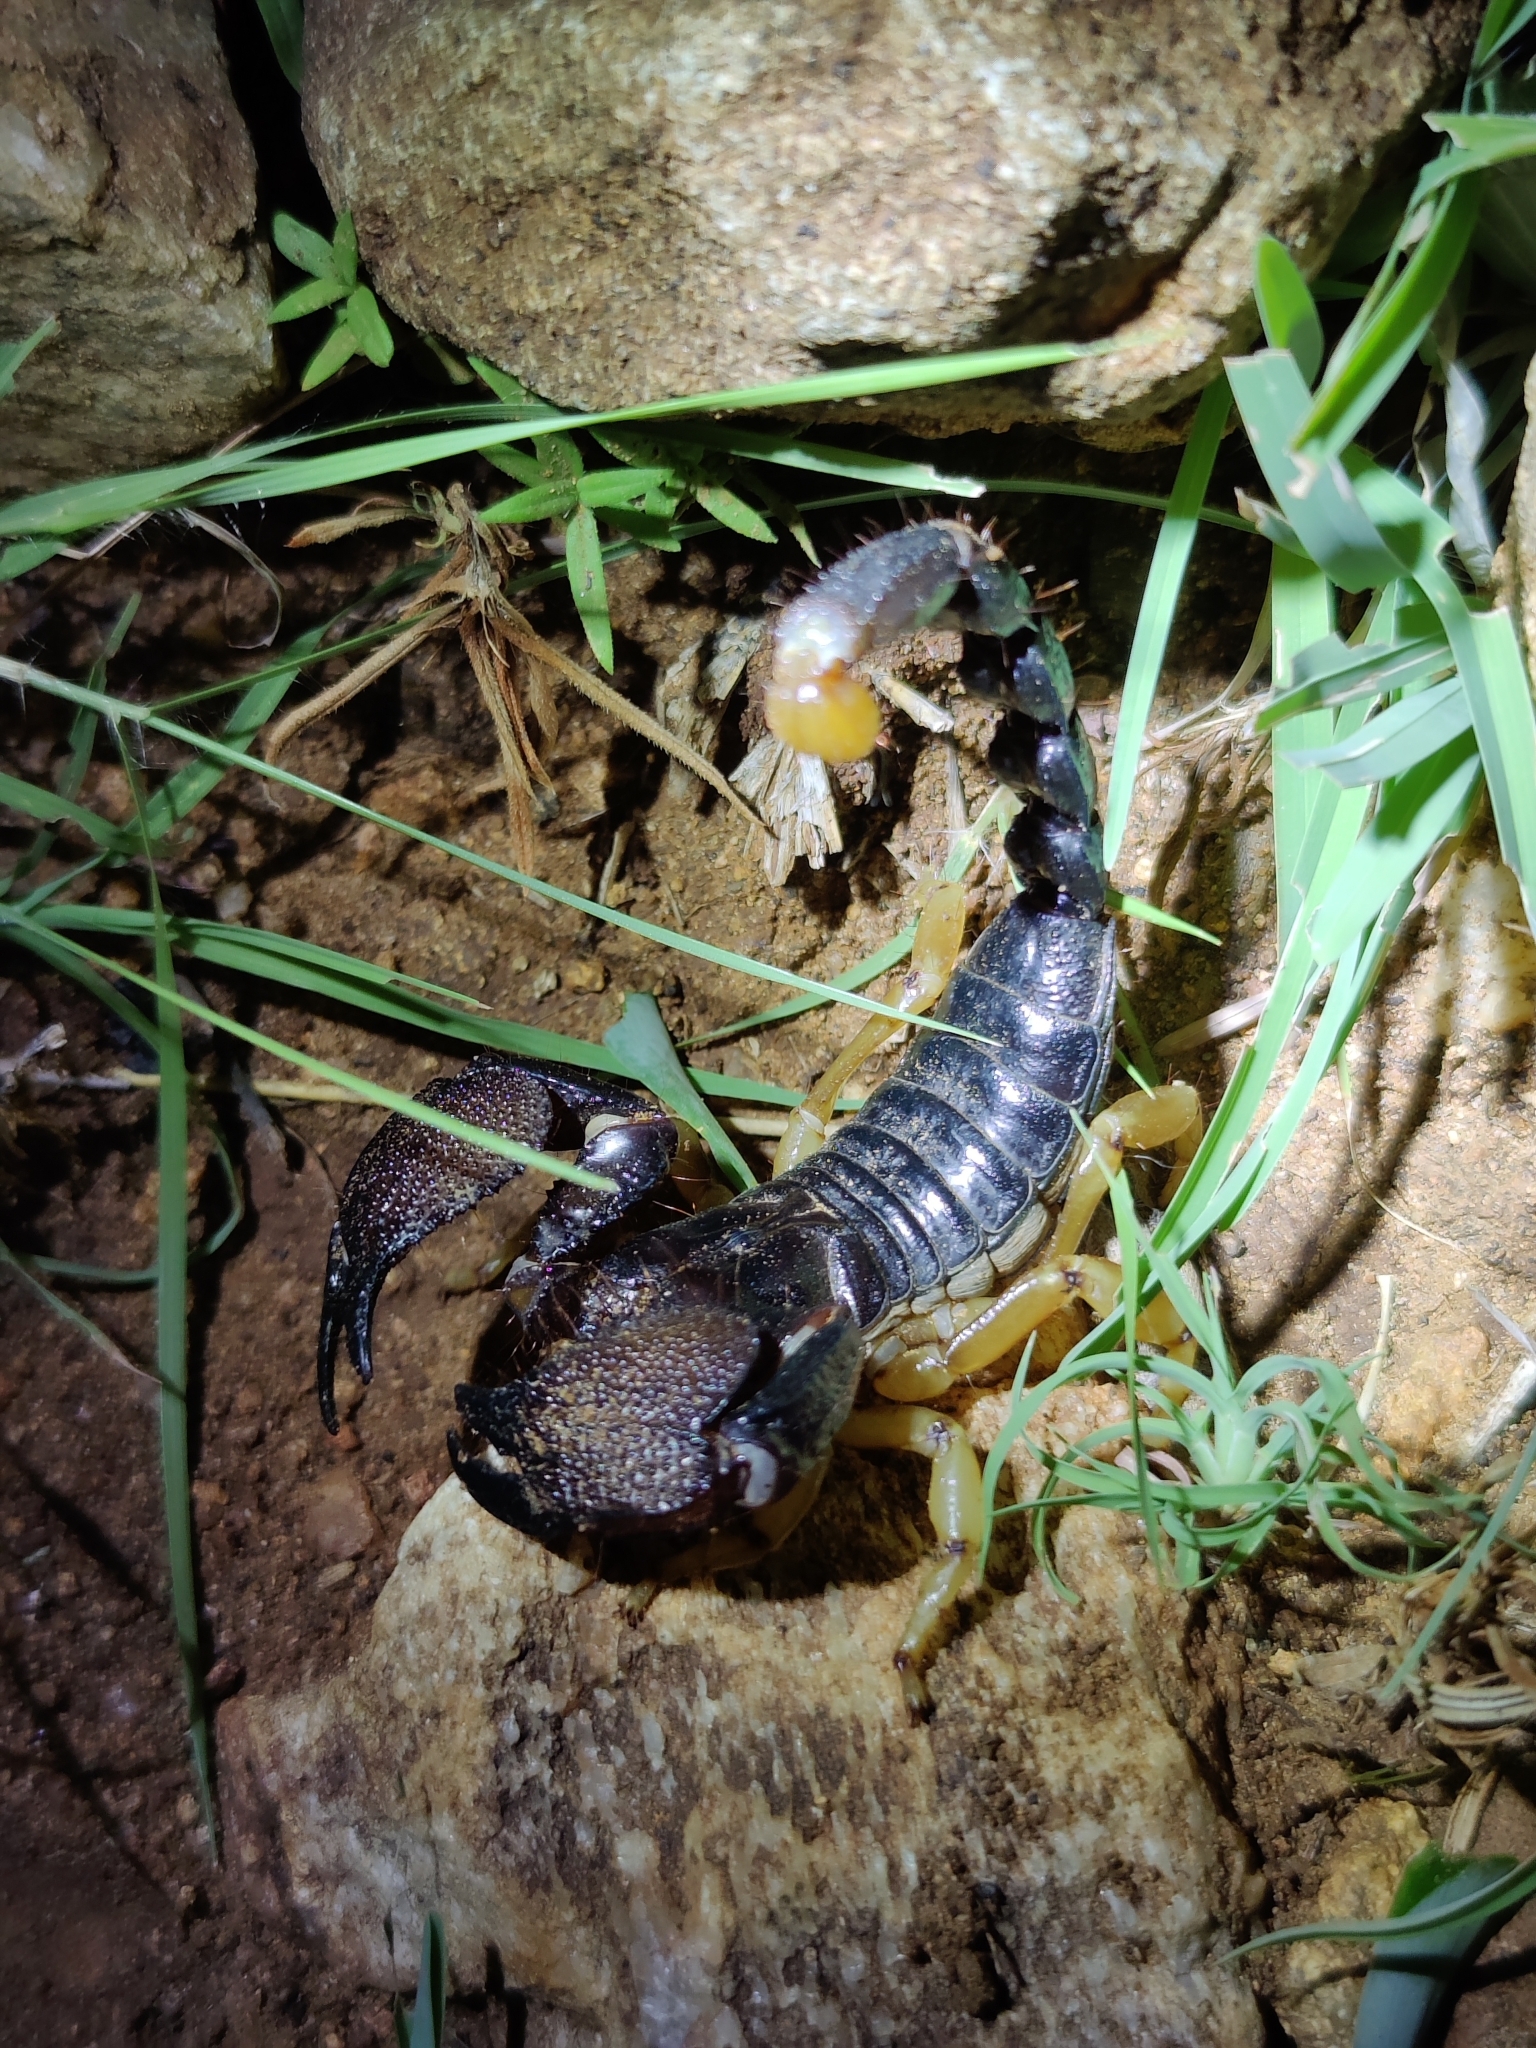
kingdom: Animalia
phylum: Arthropoda
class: Arachnida
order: Scorpiones
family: Scorpionidae
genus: Chersonesometrus
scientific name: Chersonesometrus madraspatensis
